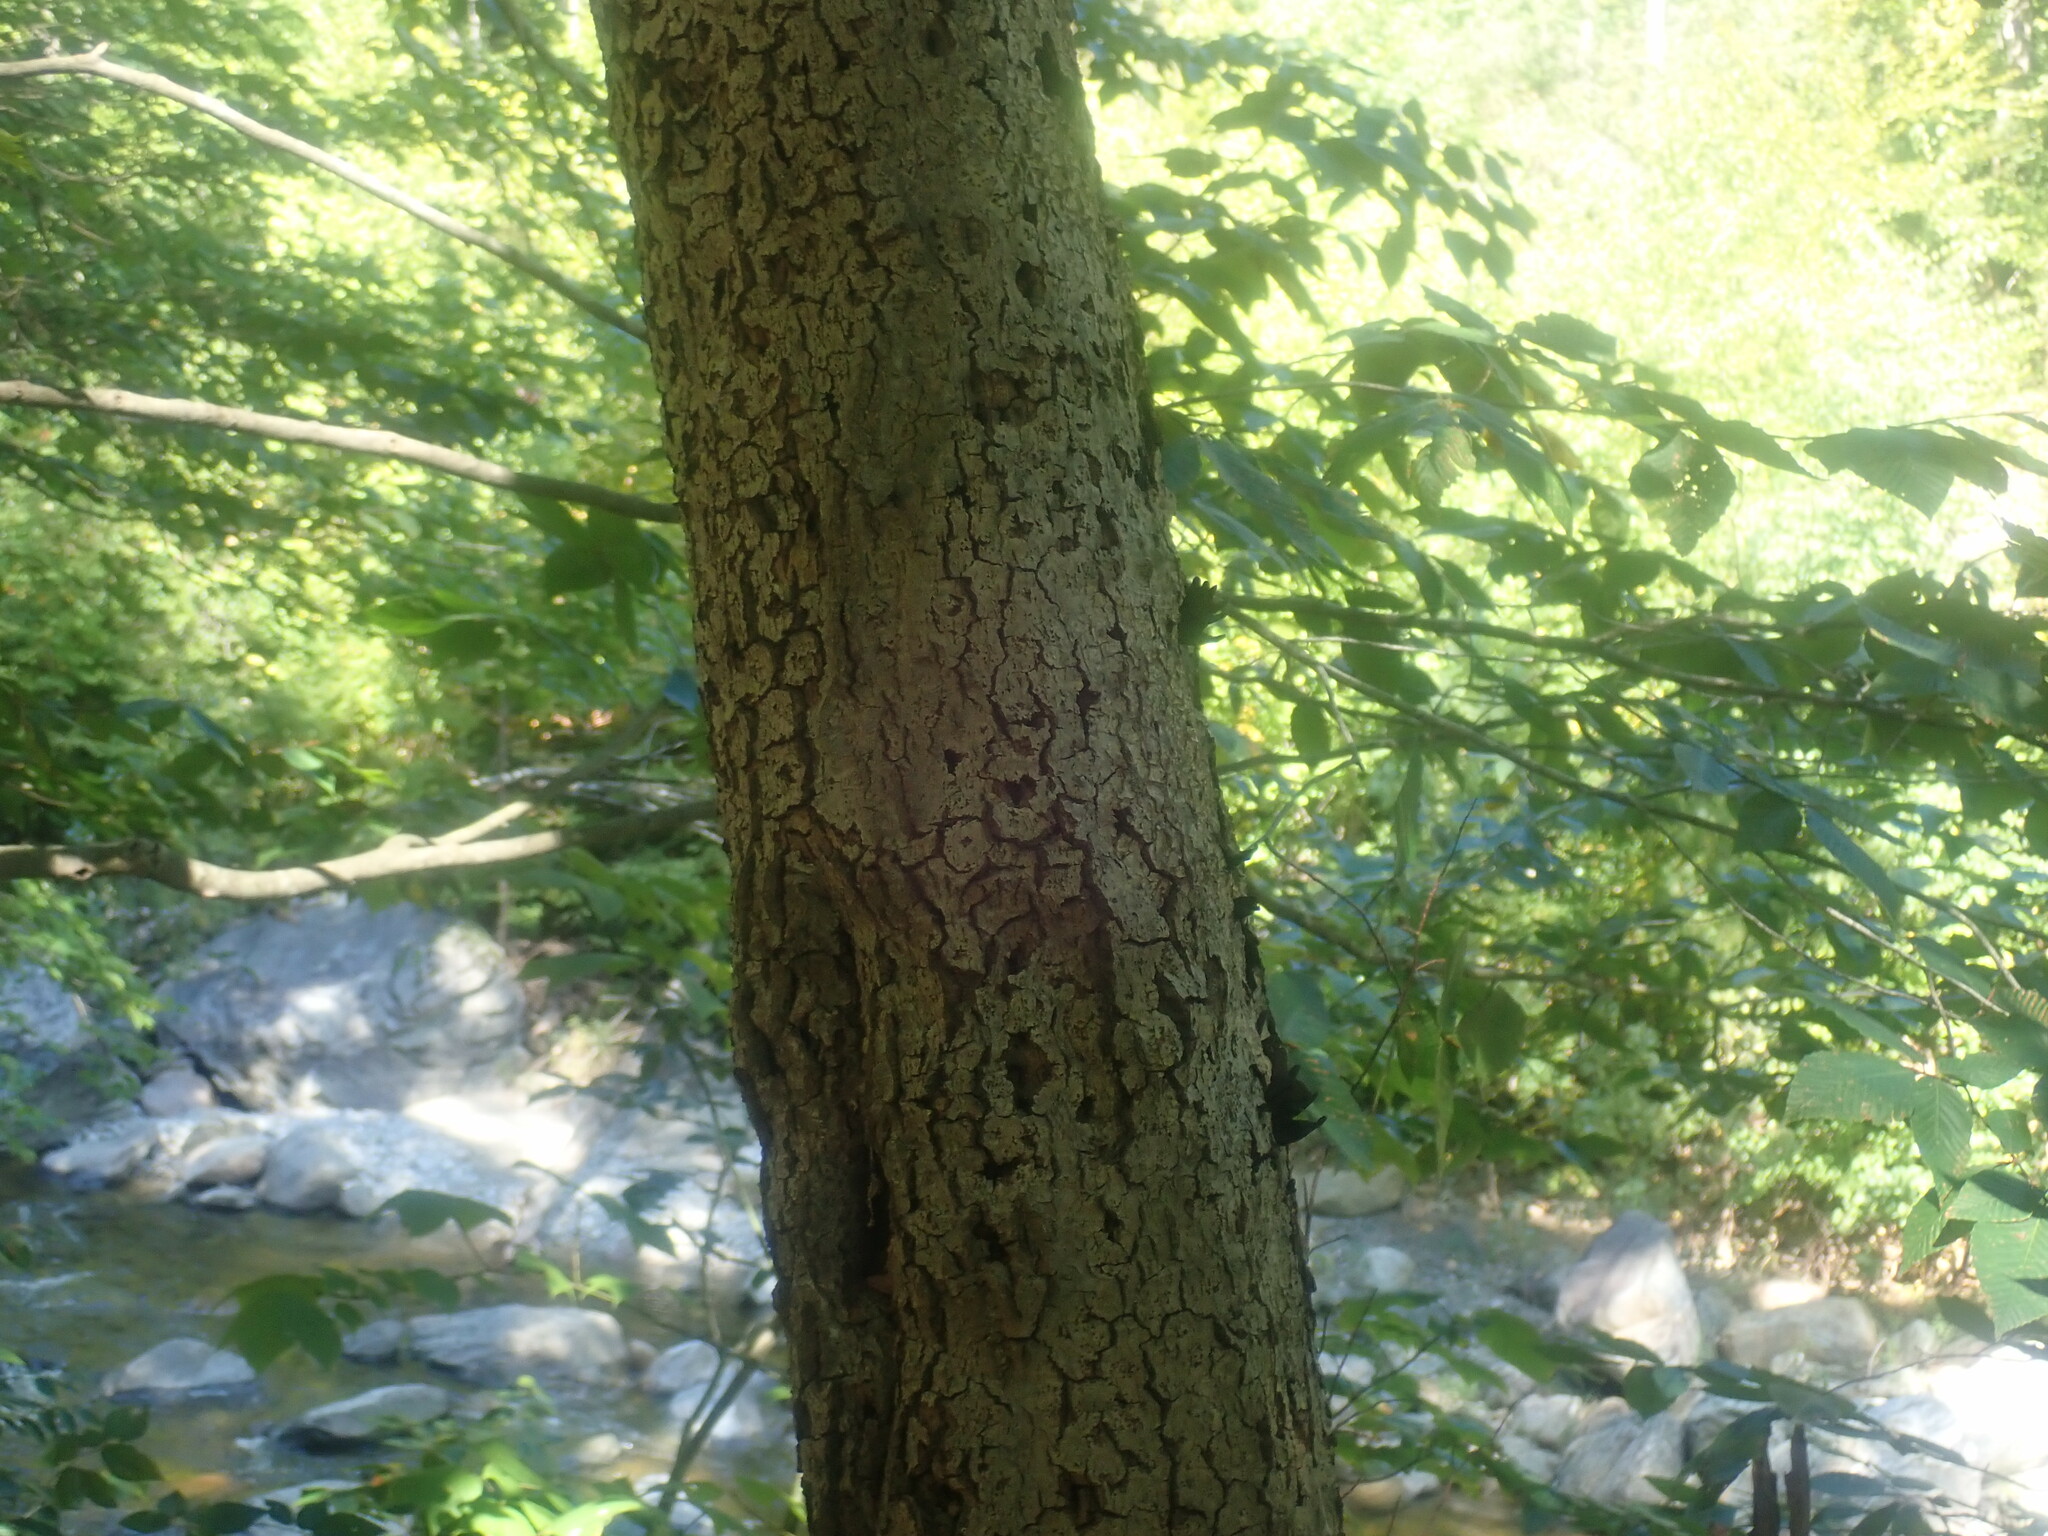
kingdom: Fungi
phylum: Ascomycota
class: Sordariomycetes
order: Hypocreales
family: Nectriaceae
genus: Neonectria
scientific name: Neonectria faginata
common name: Beech bark canker
